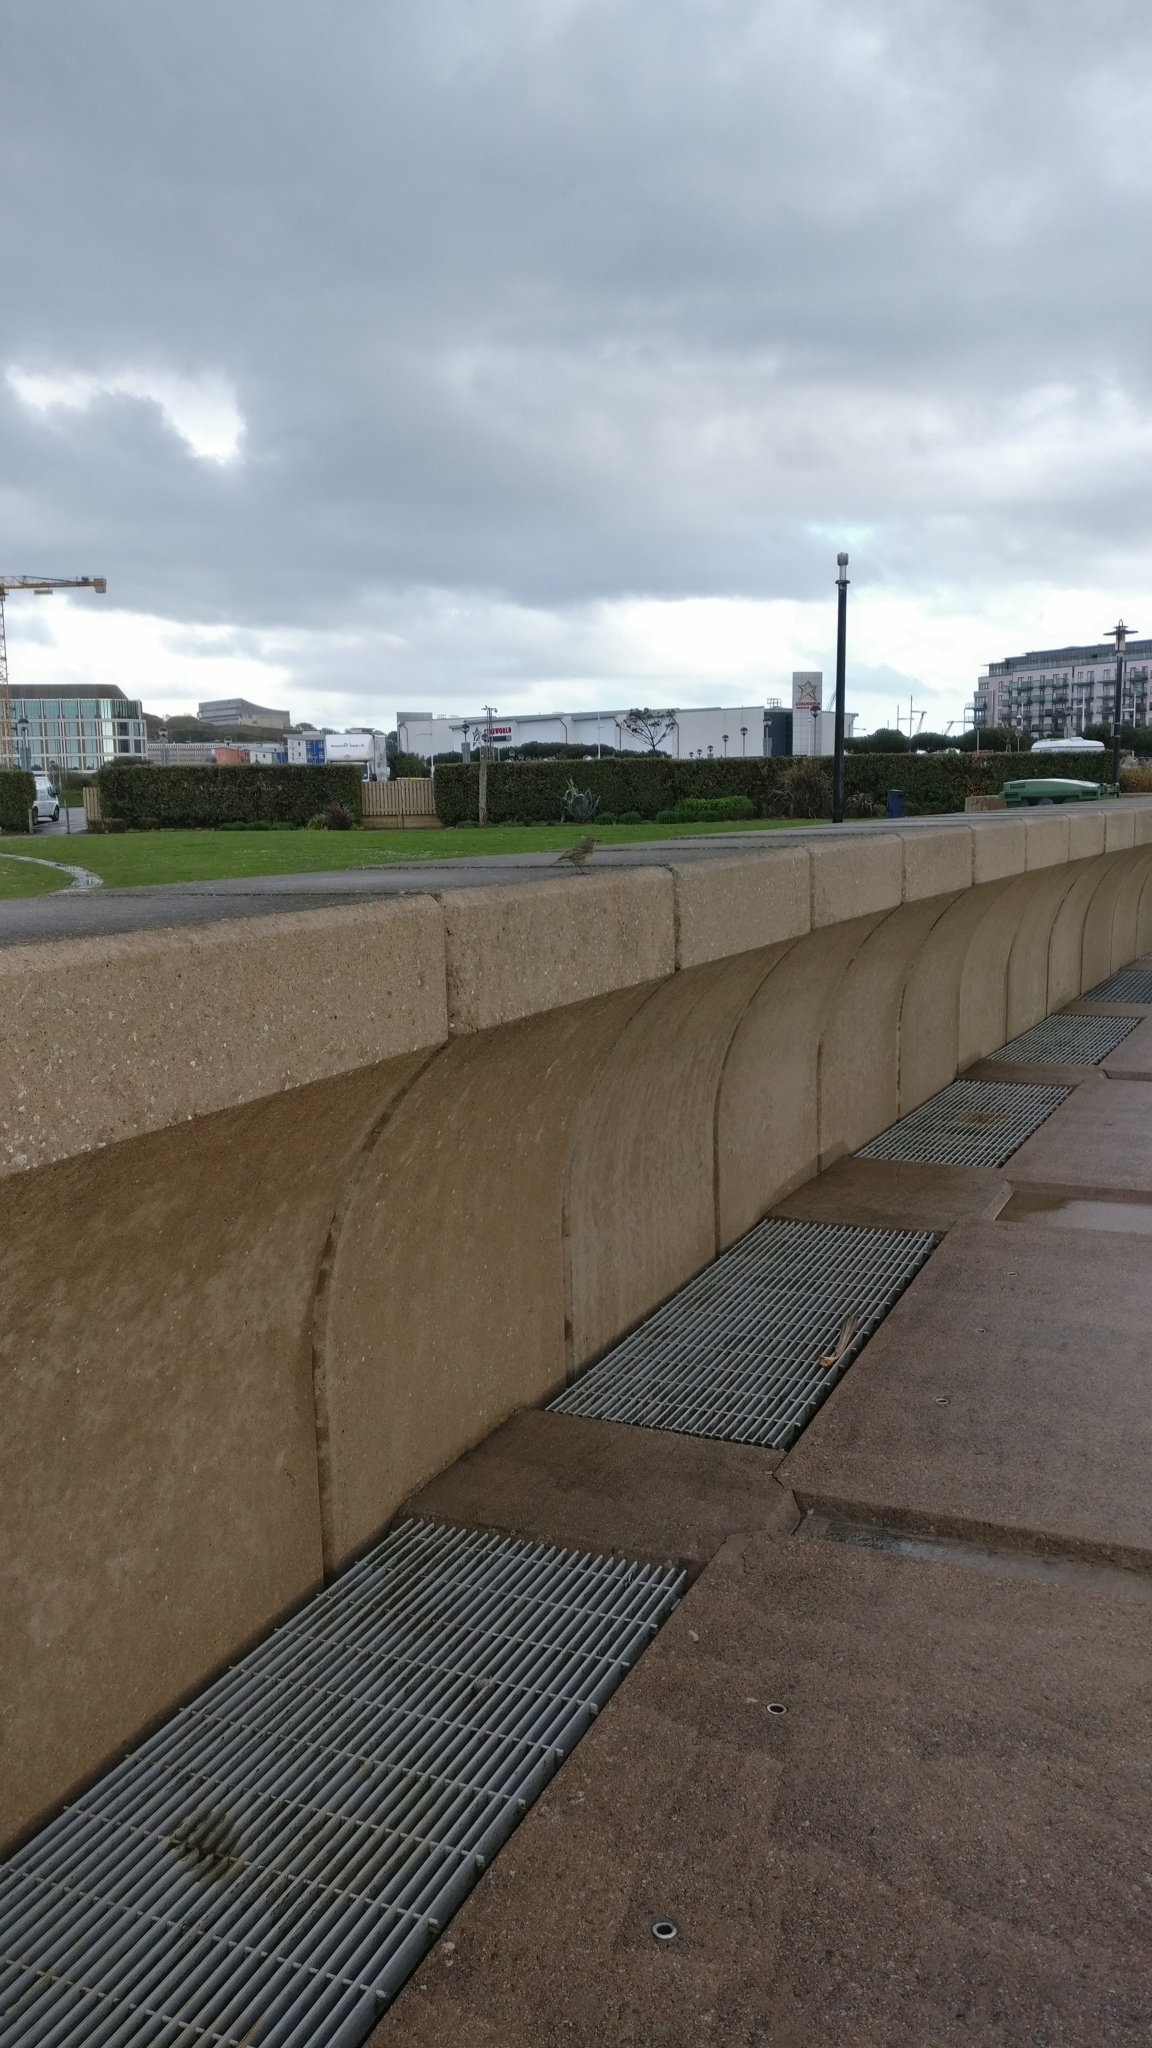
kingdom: Animalia
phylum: Chordata
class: Aves
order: Passeriformes
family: Motacillidae
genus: Anthus
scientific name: Anthus petrosus
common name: Eurasian rock pipit
